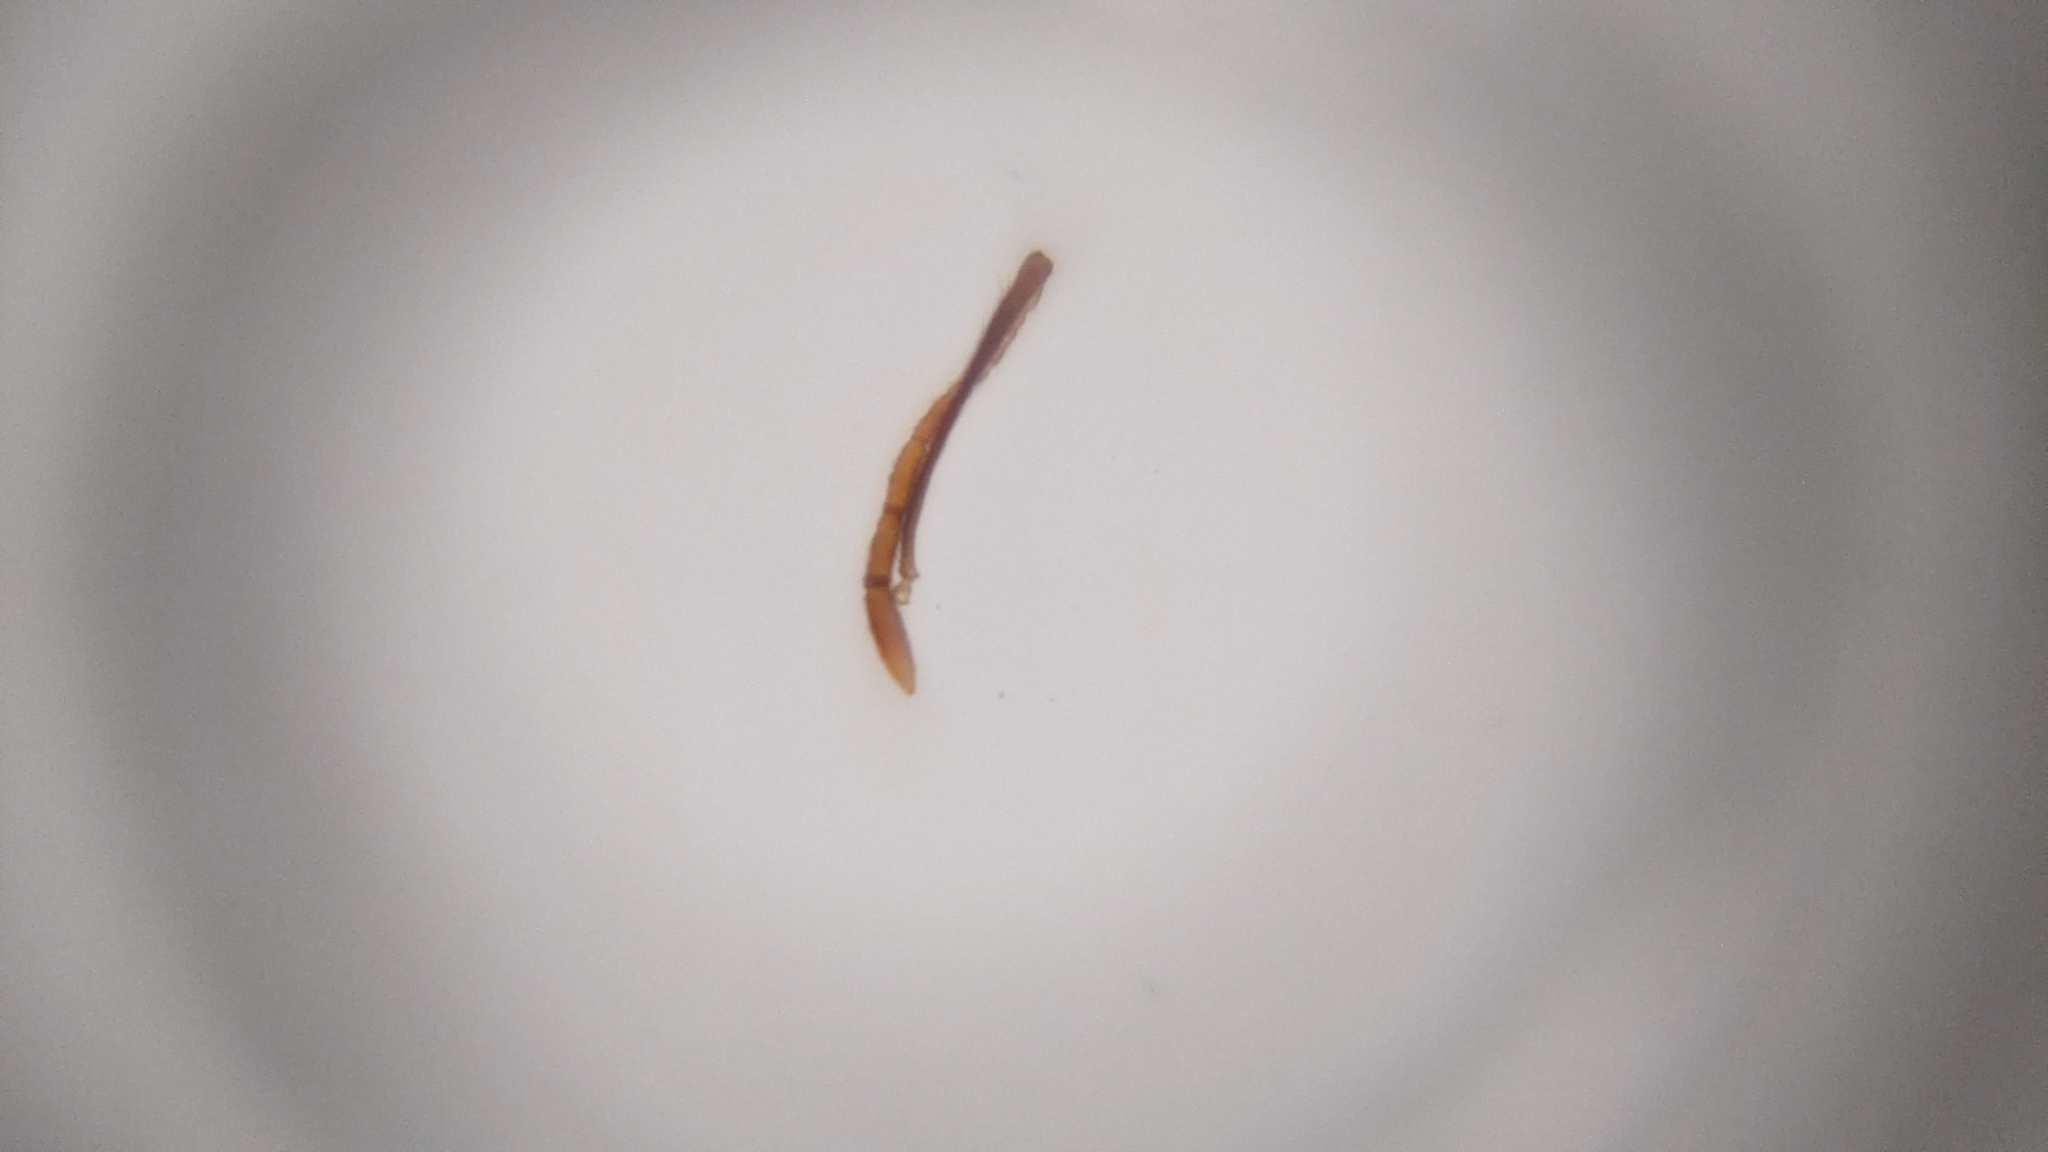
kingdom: Animalia
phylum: Arthropoda
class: Insecta
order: Hymenoptera
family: Formicidae
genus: Pheidole
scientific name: Pheidole noda
